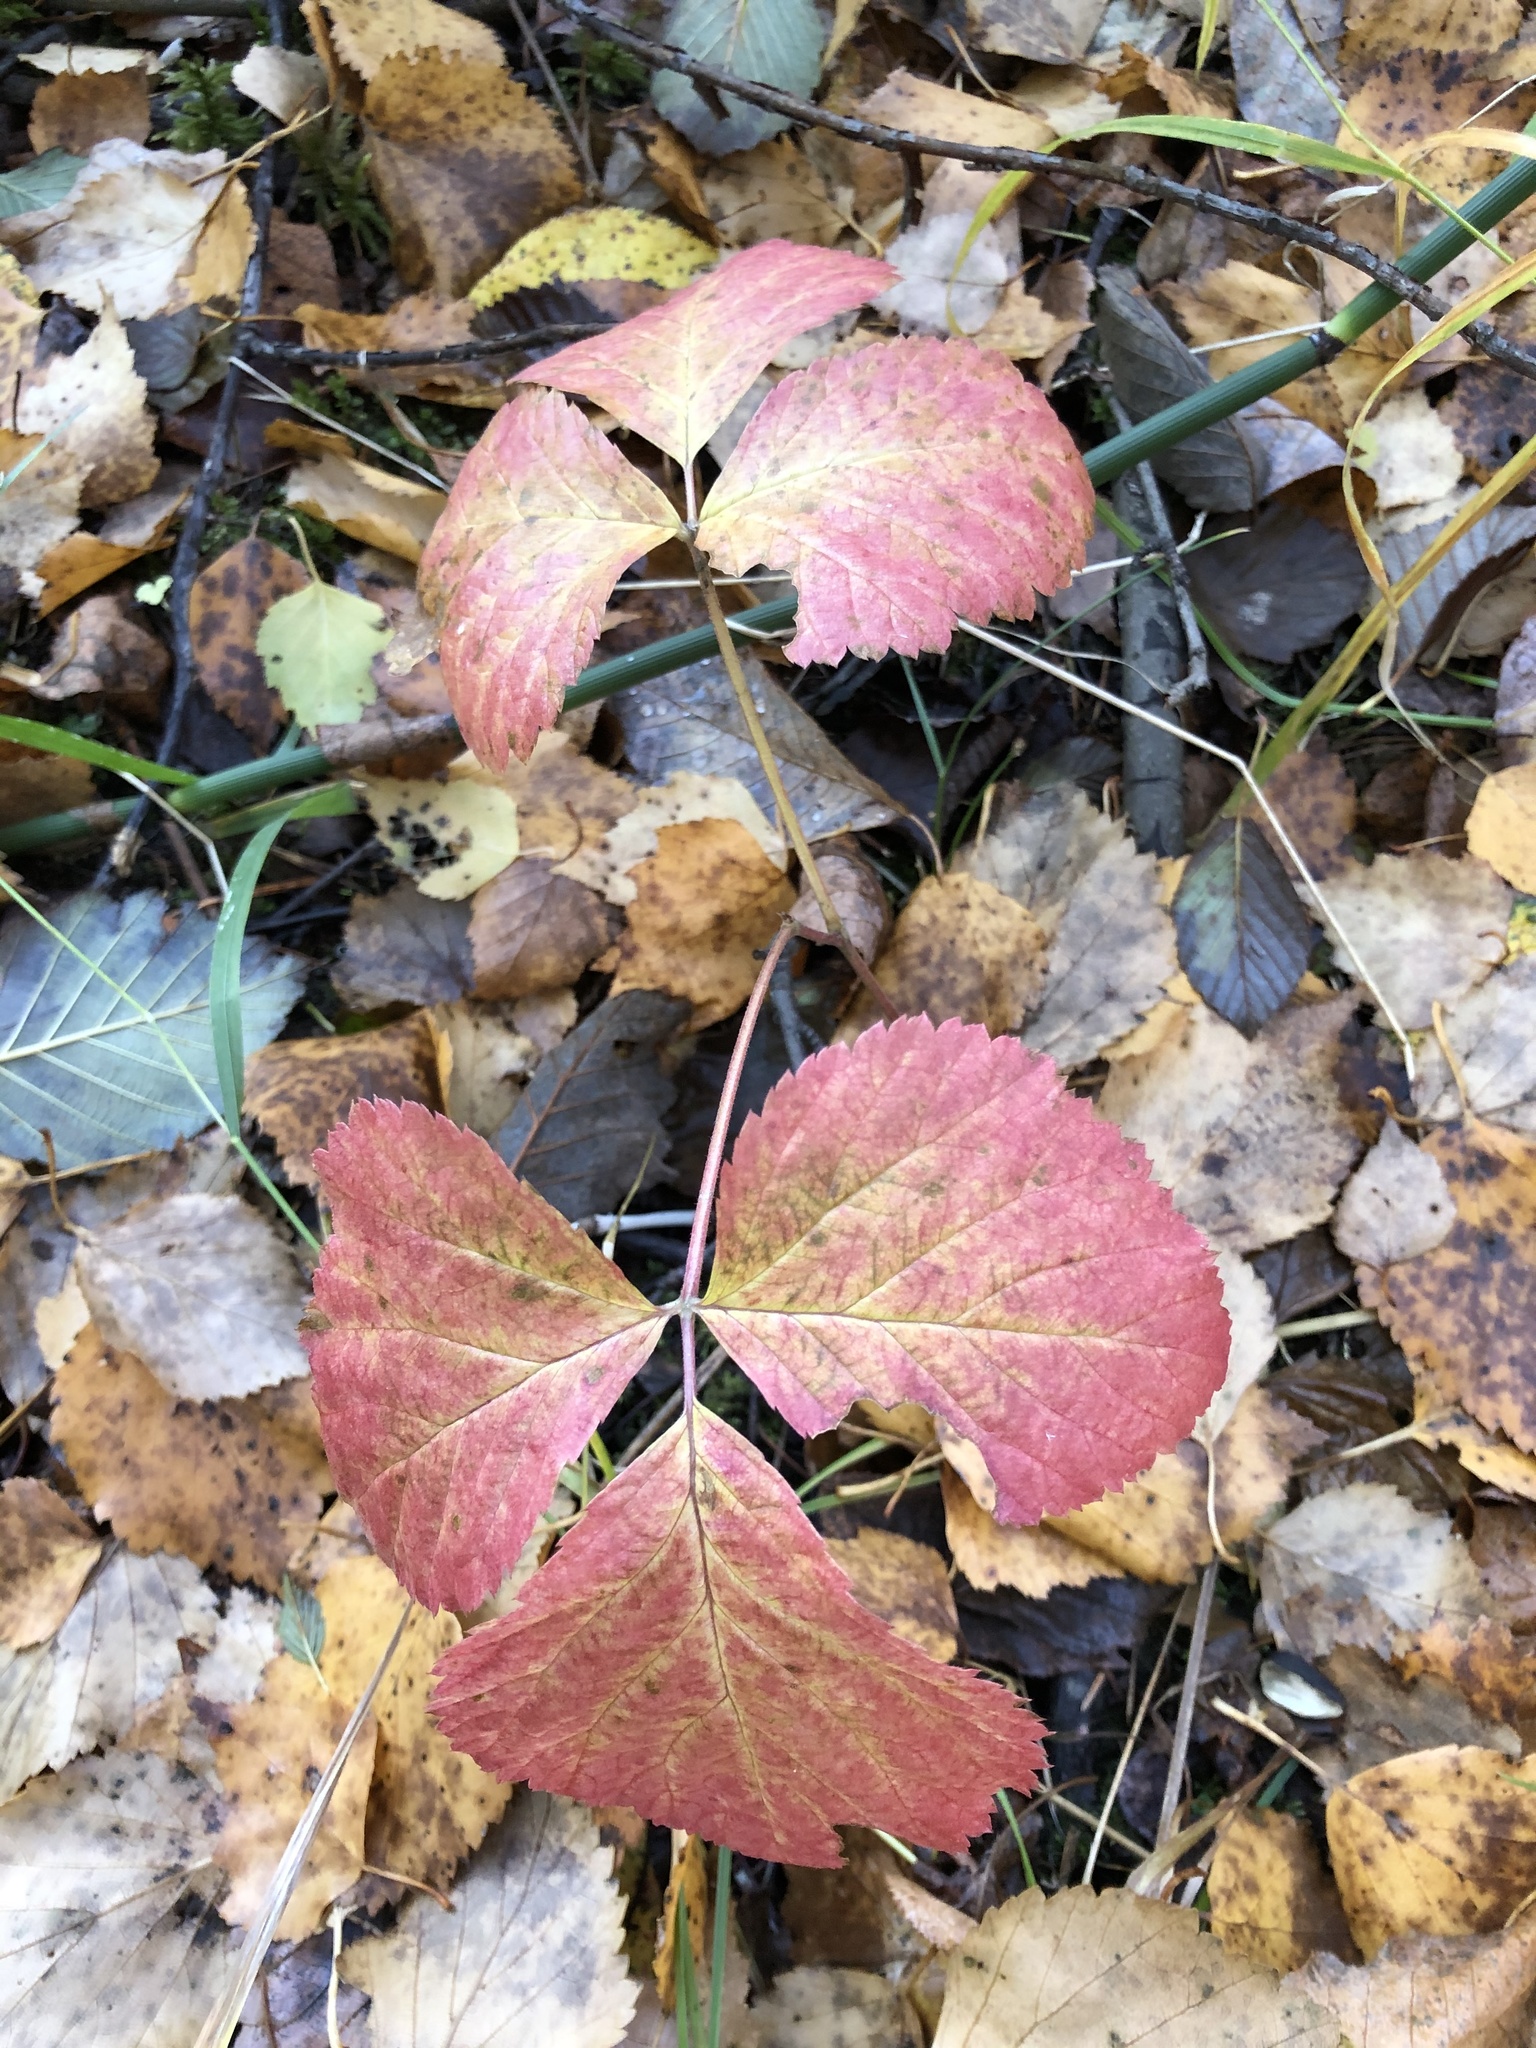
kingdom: Plantae
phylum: Tracheophyta
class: Magnoliopsida
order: Rosales
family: Rosaceae
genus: Rubus
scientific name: Rubus saxatilis
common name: Stone bramble
